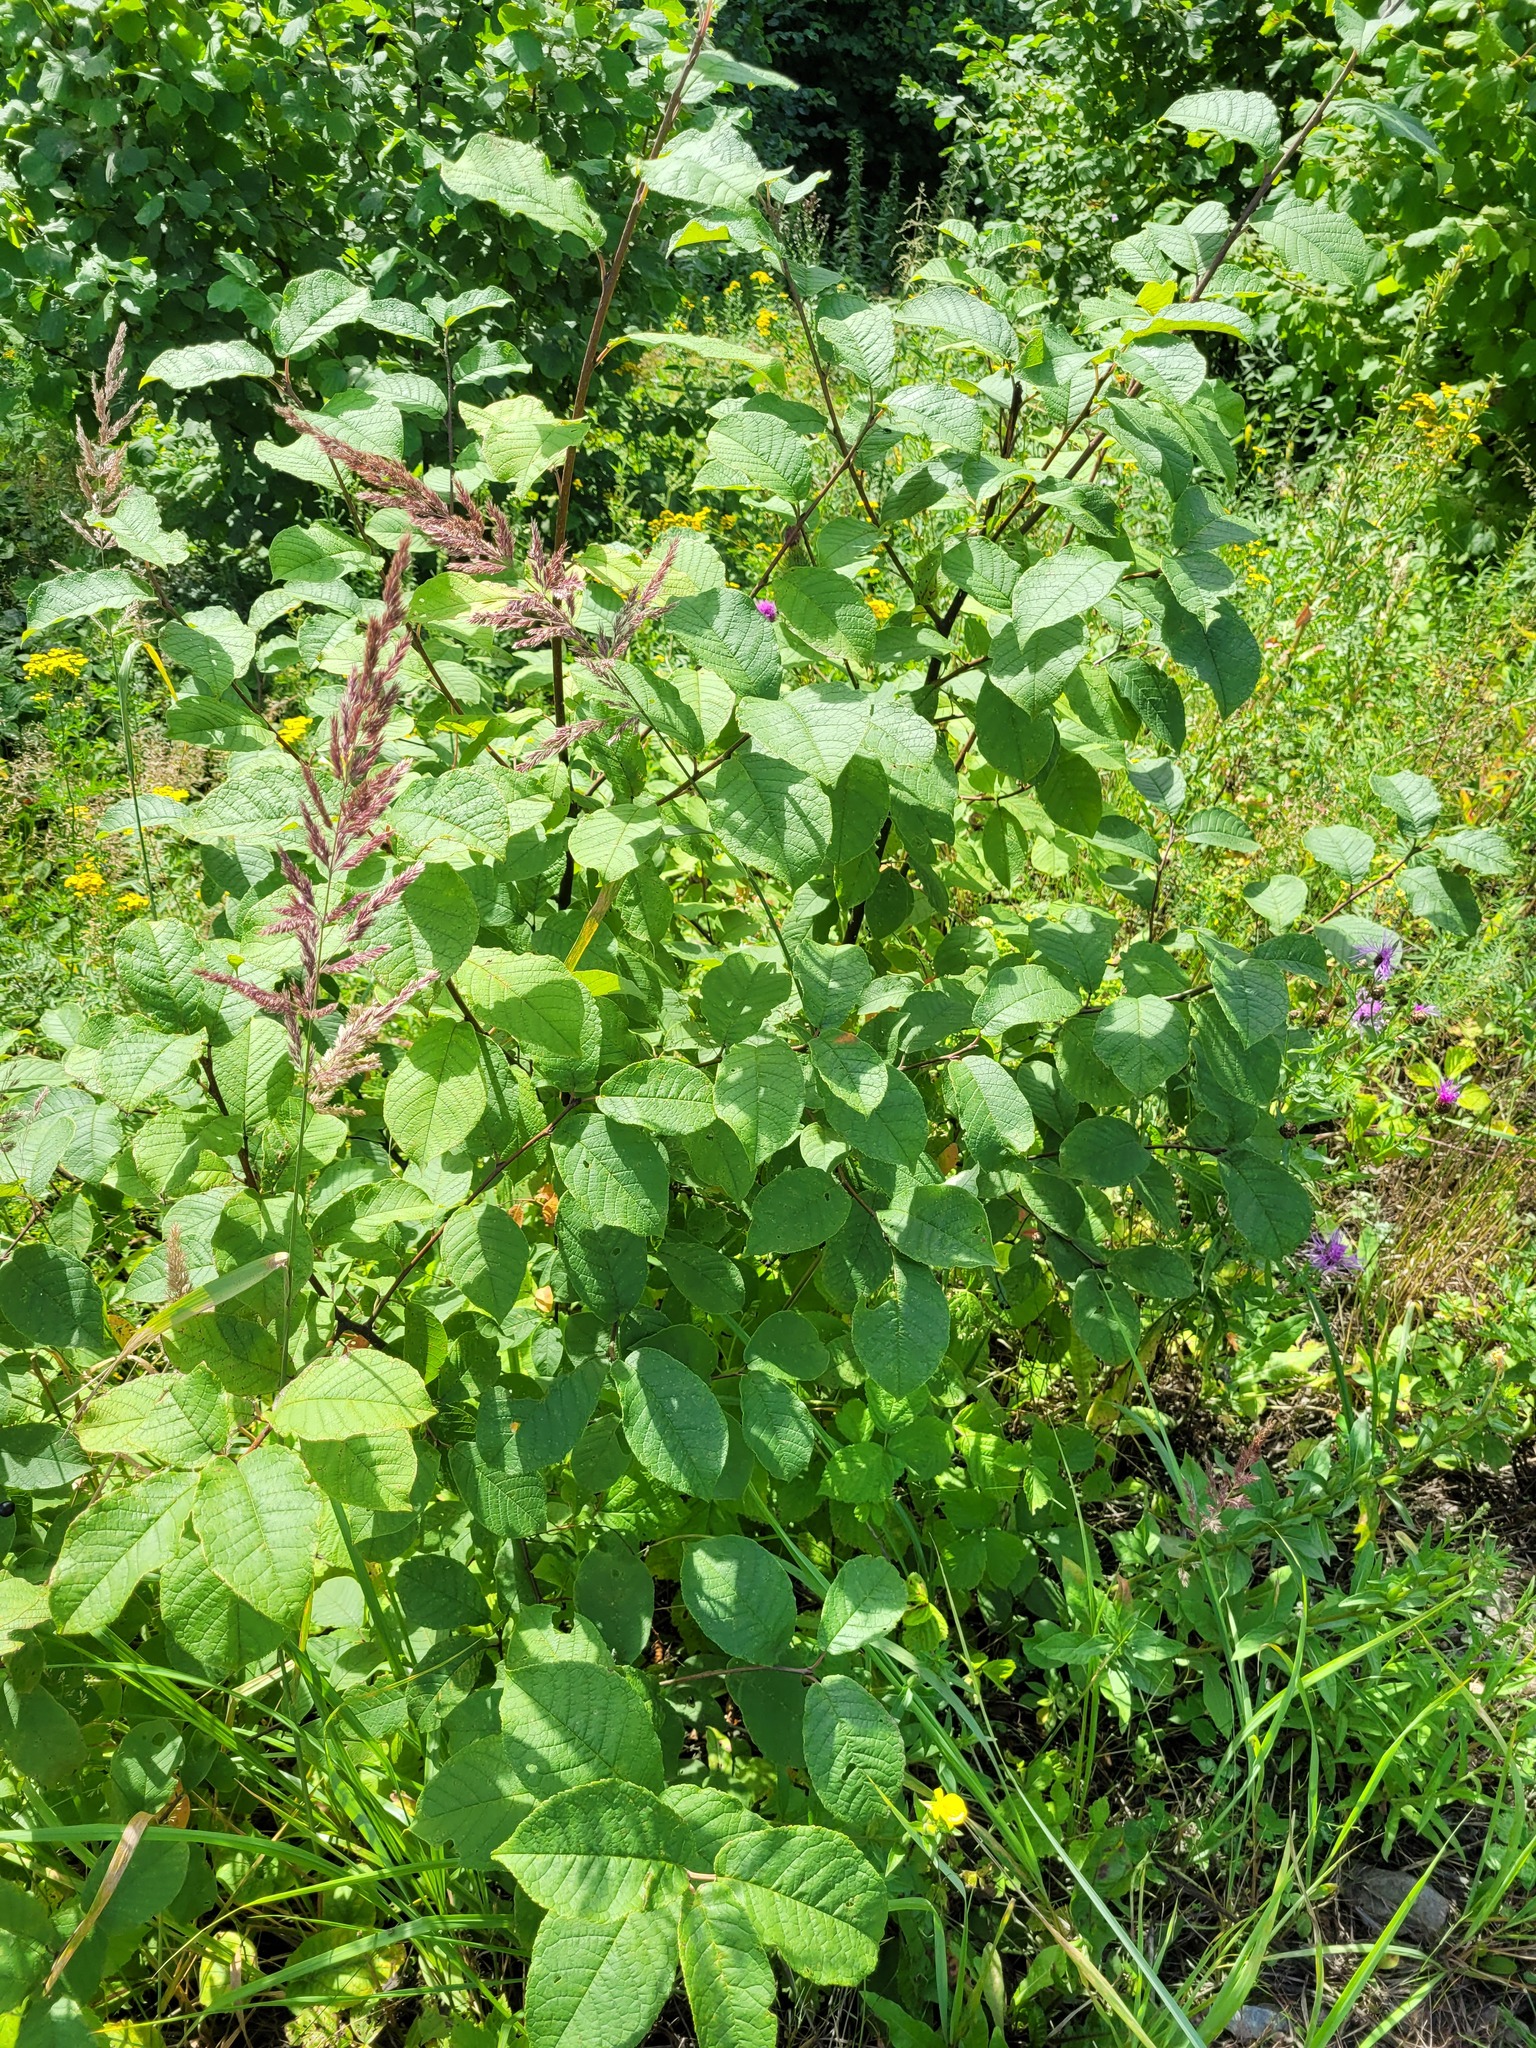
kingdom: Plantae
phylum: Tracheophyta
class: Magnoliopsida
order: Rosales
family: Rosaceae
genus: Prunus
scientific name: Prunus padus
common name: Bird cherry
